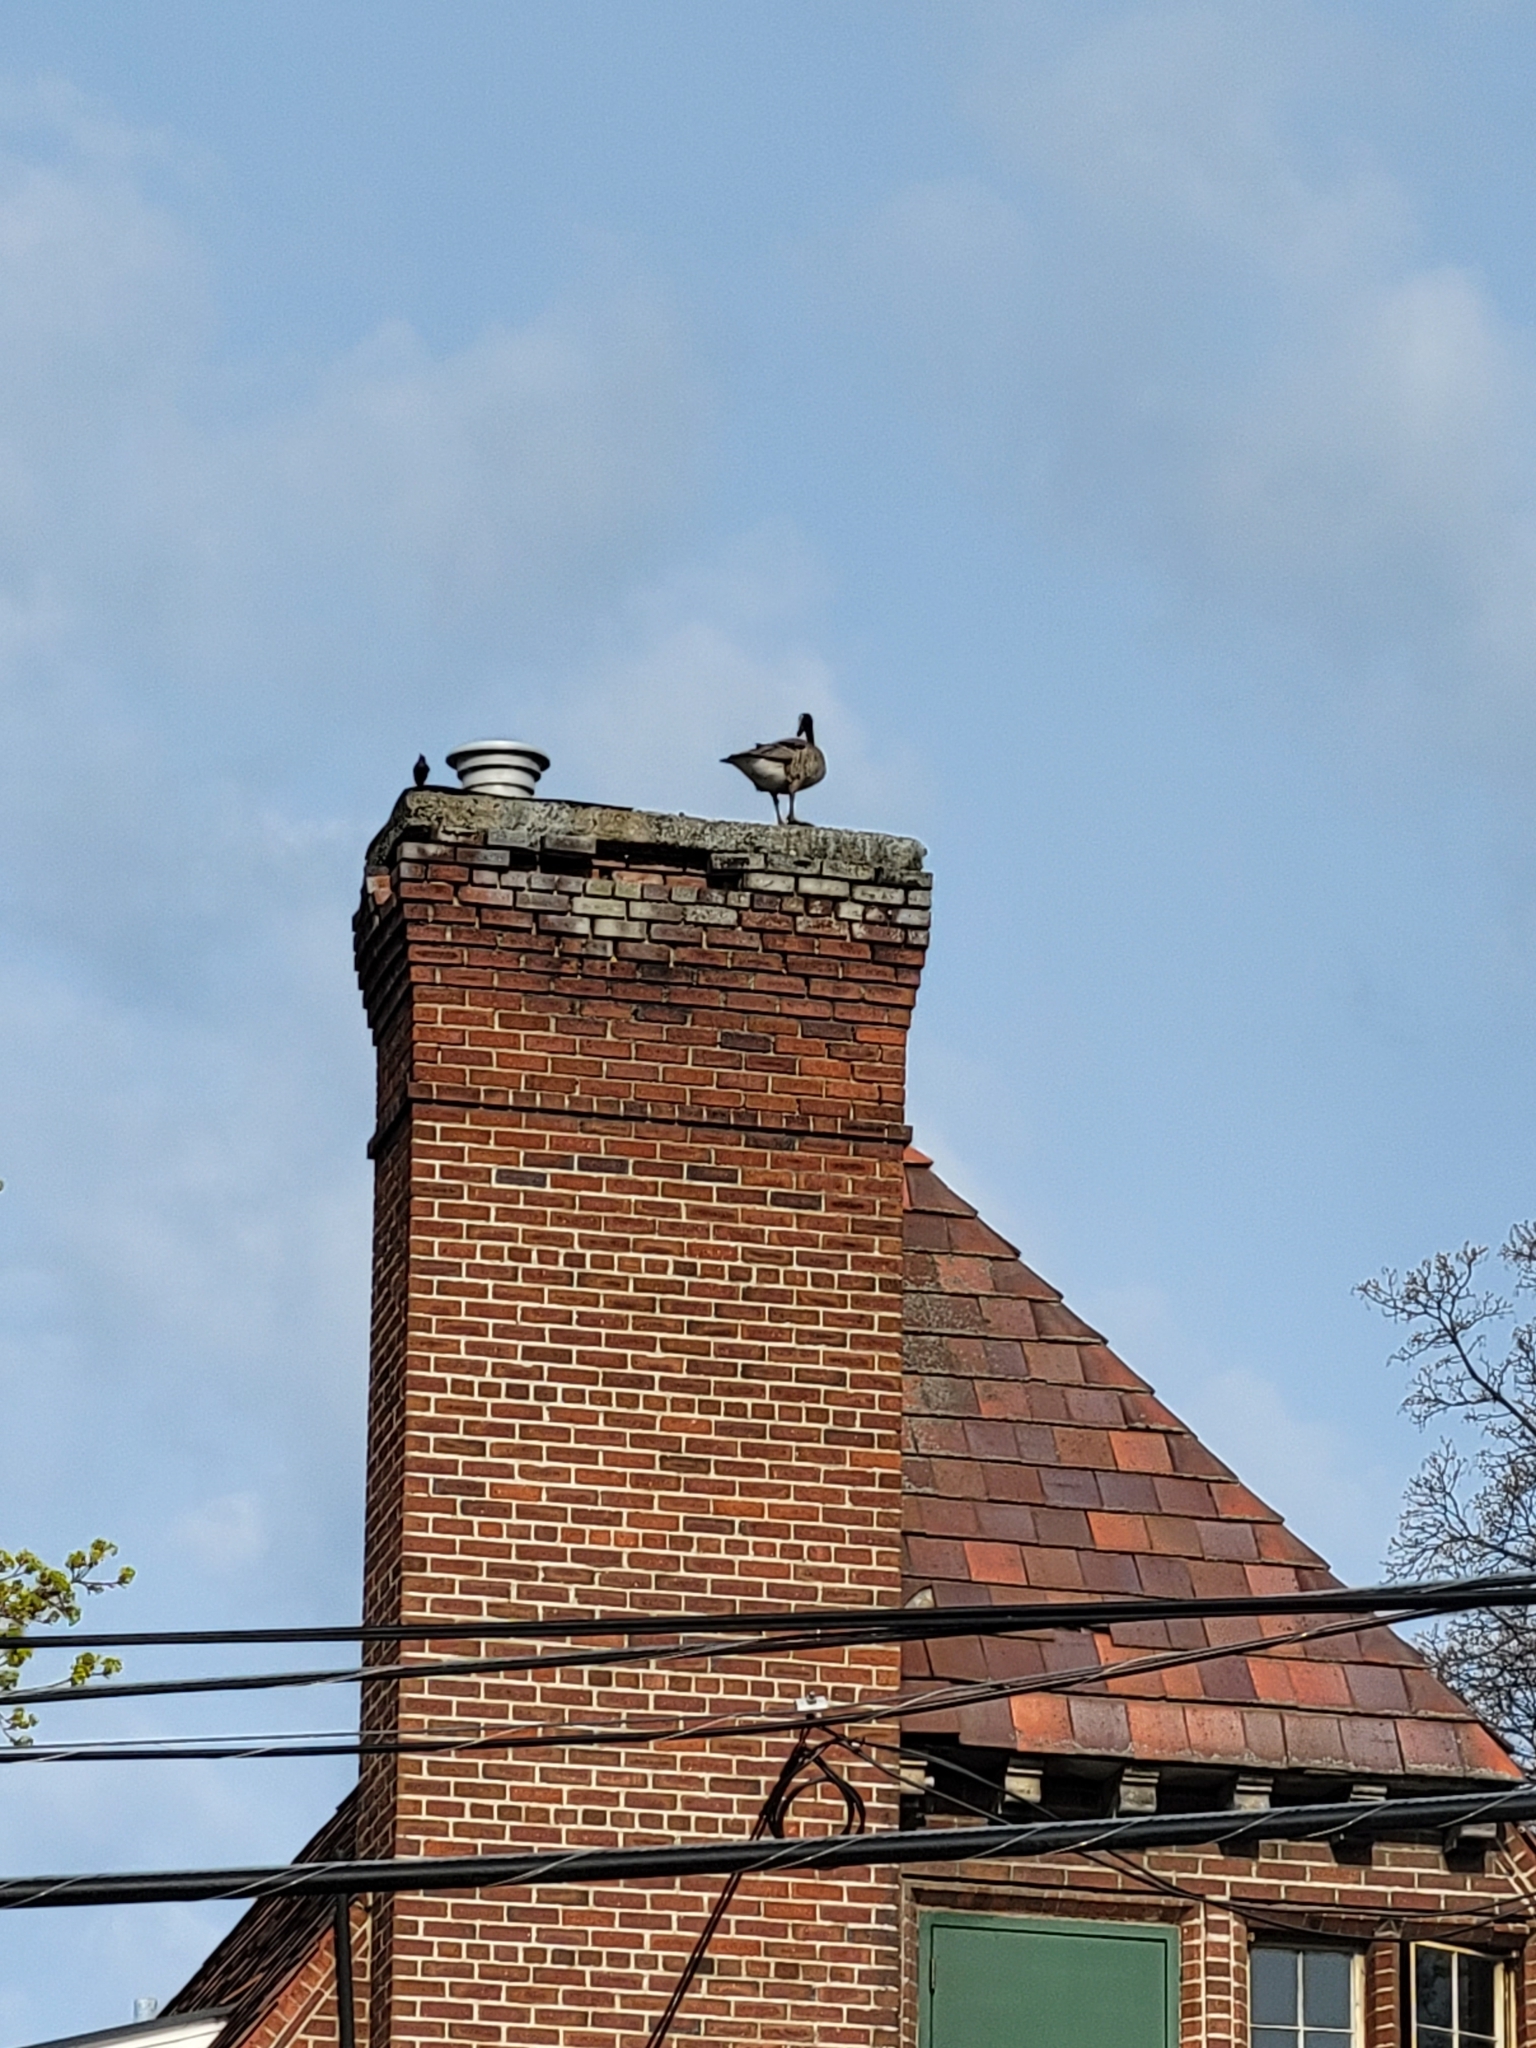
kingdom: Animalia
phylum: Chordata
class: Aves
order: Anseriformes
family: Anatidae
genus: Branta
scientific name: Branta canadensis
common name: Canada goose
